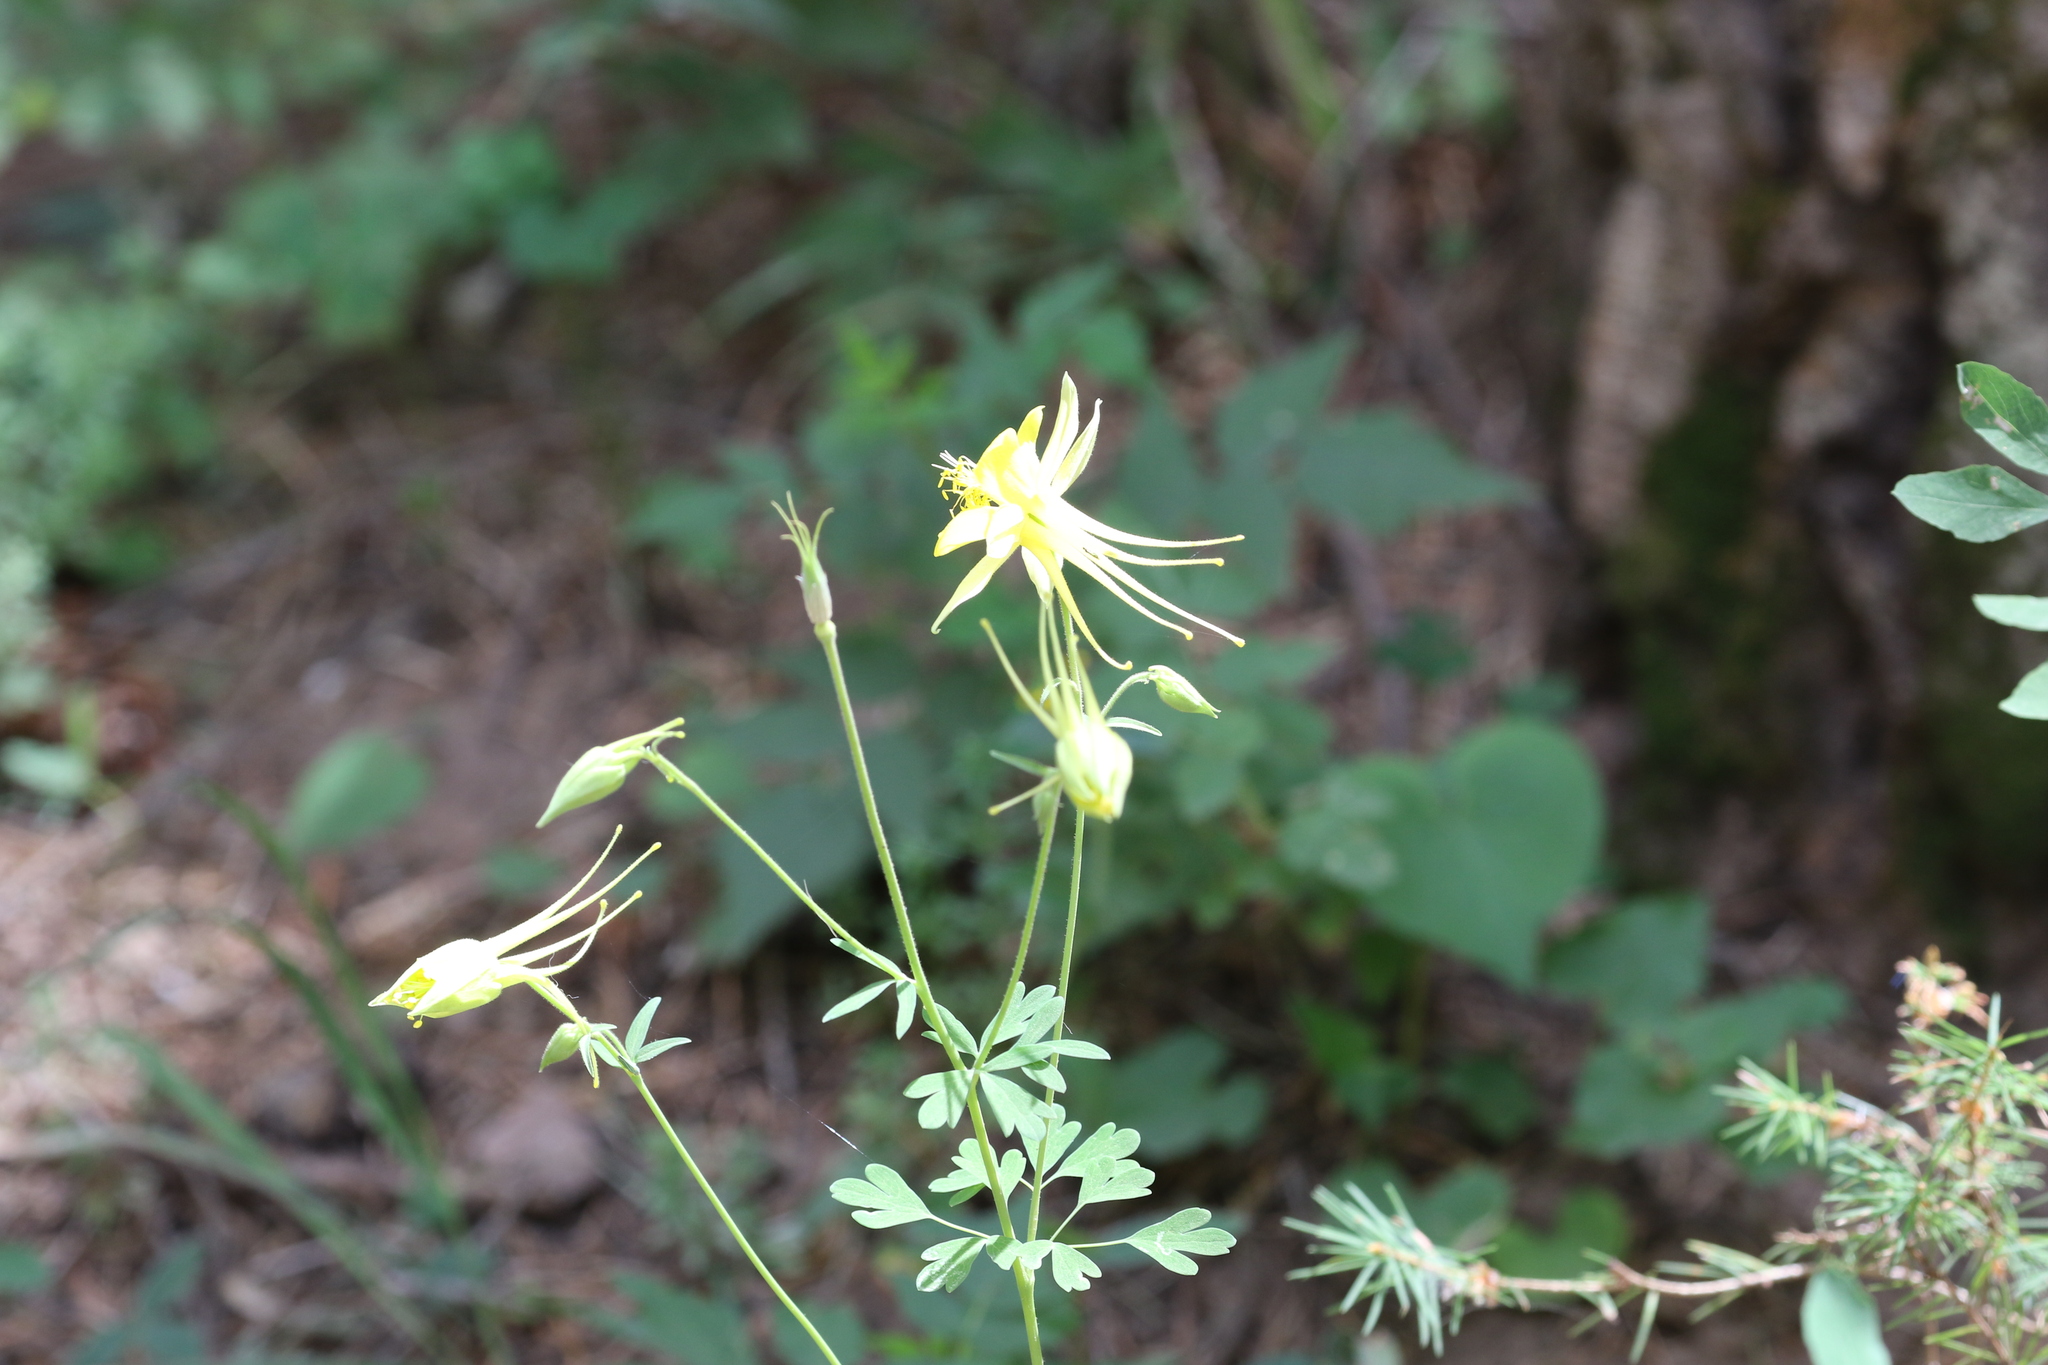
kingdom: Plantae
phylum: Tracheophyta
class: Magnoliopsida
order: Ranunculales
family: Ranunculaceae
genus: Aquilegia
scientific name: Aquilegia chrysantha
